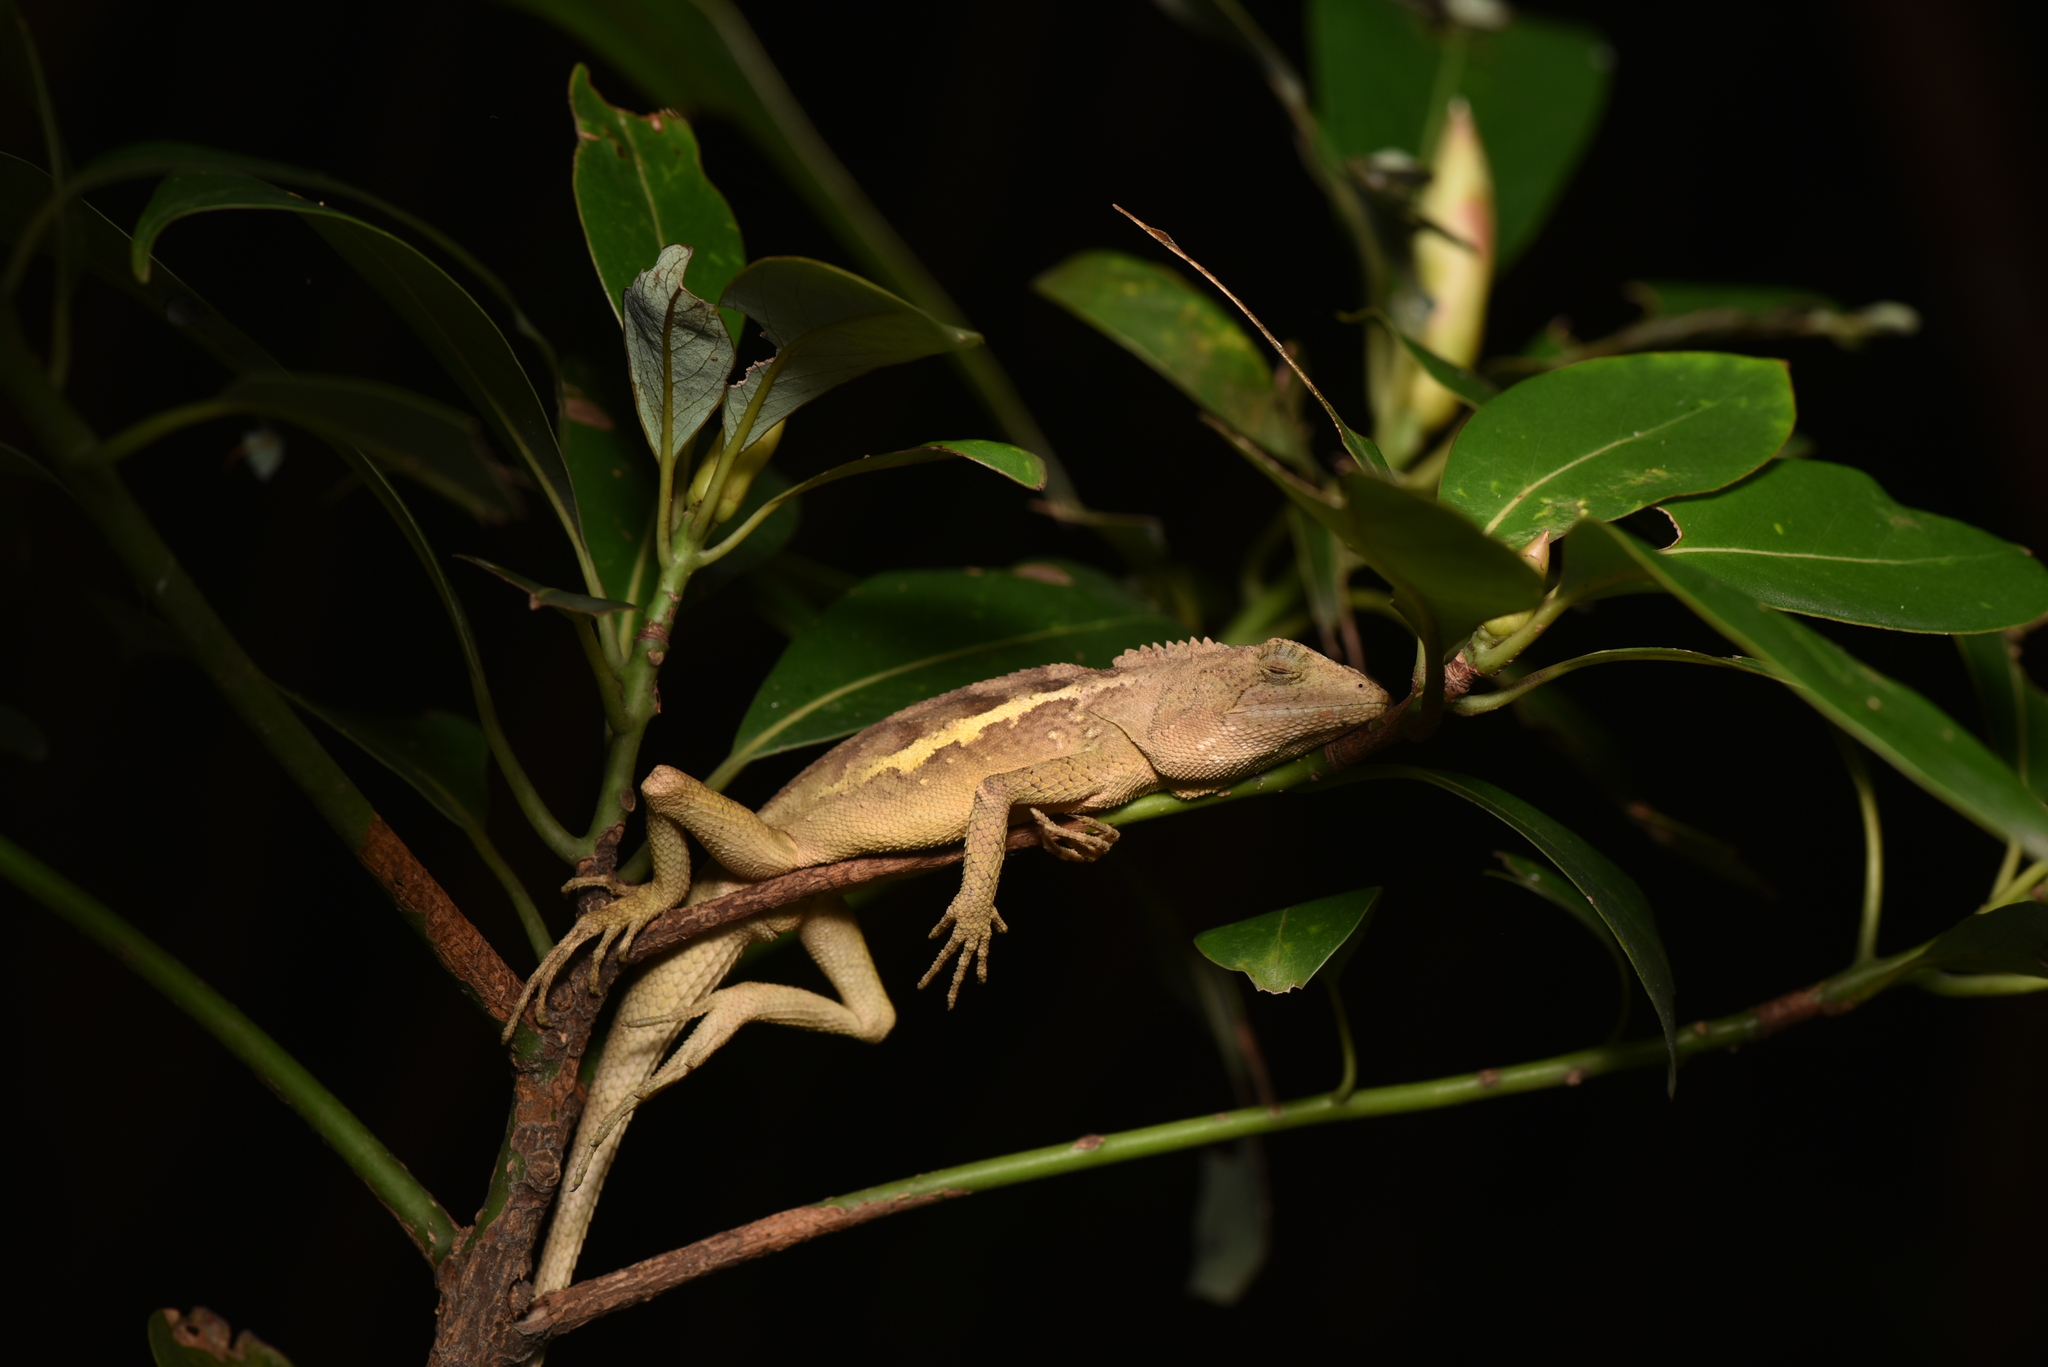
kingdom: Animalia
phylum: Chordata
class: Squamata
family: Agamidae
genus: Diploderma
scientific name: Diploderma swinhonis
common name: Taiwan japalure
